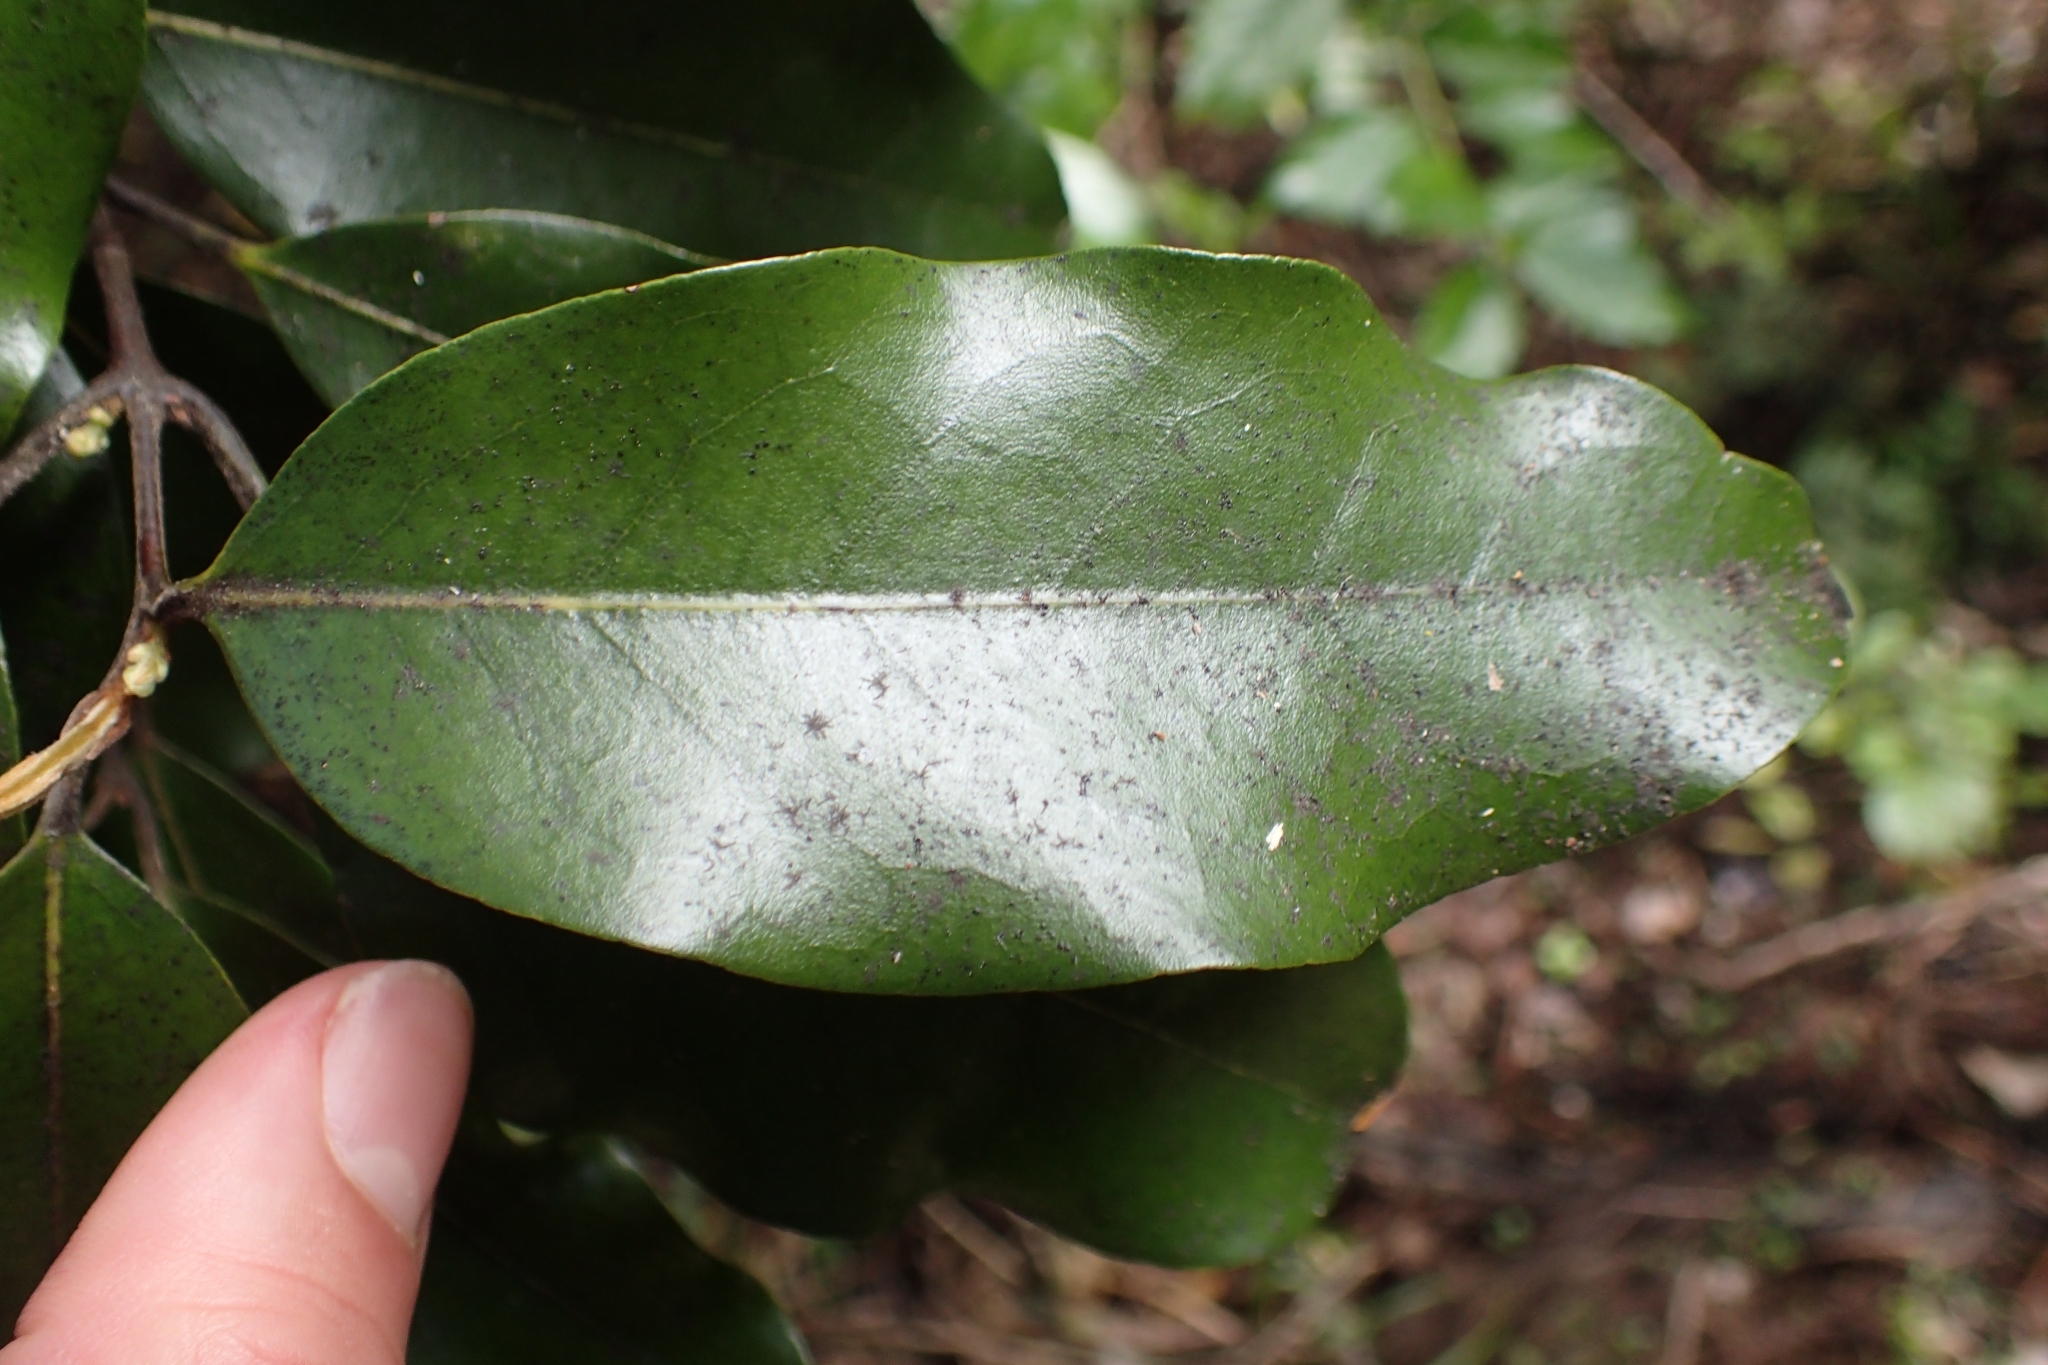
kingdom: Plantae
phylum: Tracheophyta
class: Magnoliopsida
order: Asterales
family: Asteraceae
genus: Olearia
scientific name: Olearia albida
